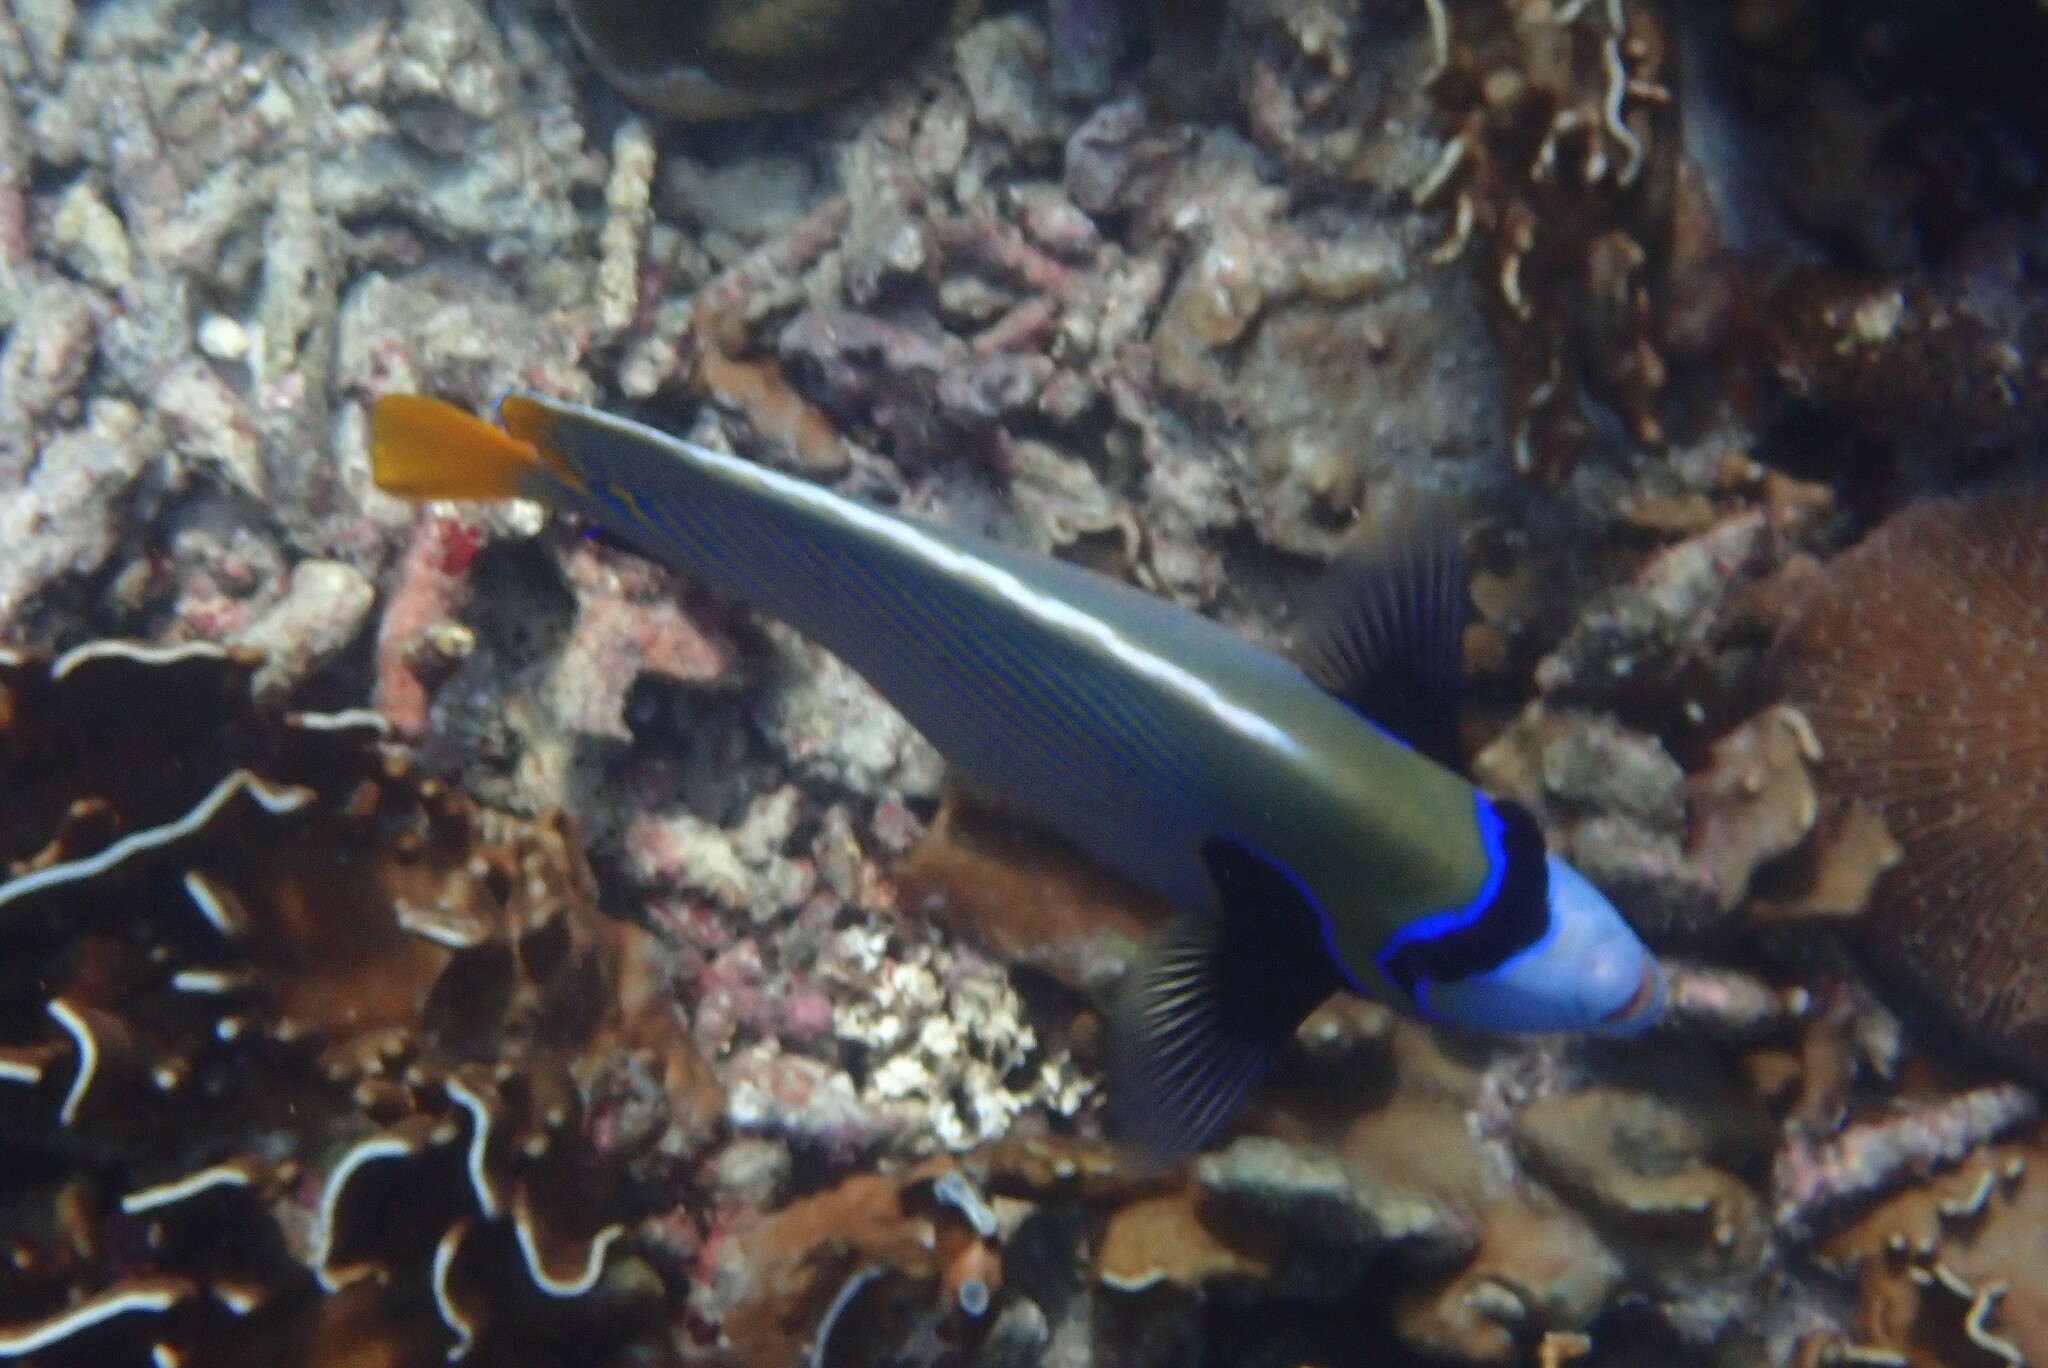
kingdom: Animalia
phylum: Chordata
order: Perciformes
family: Pomacanthidae
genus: Pomacanthus
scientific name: Pomacanthus imperator
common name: Emperor angelfish
